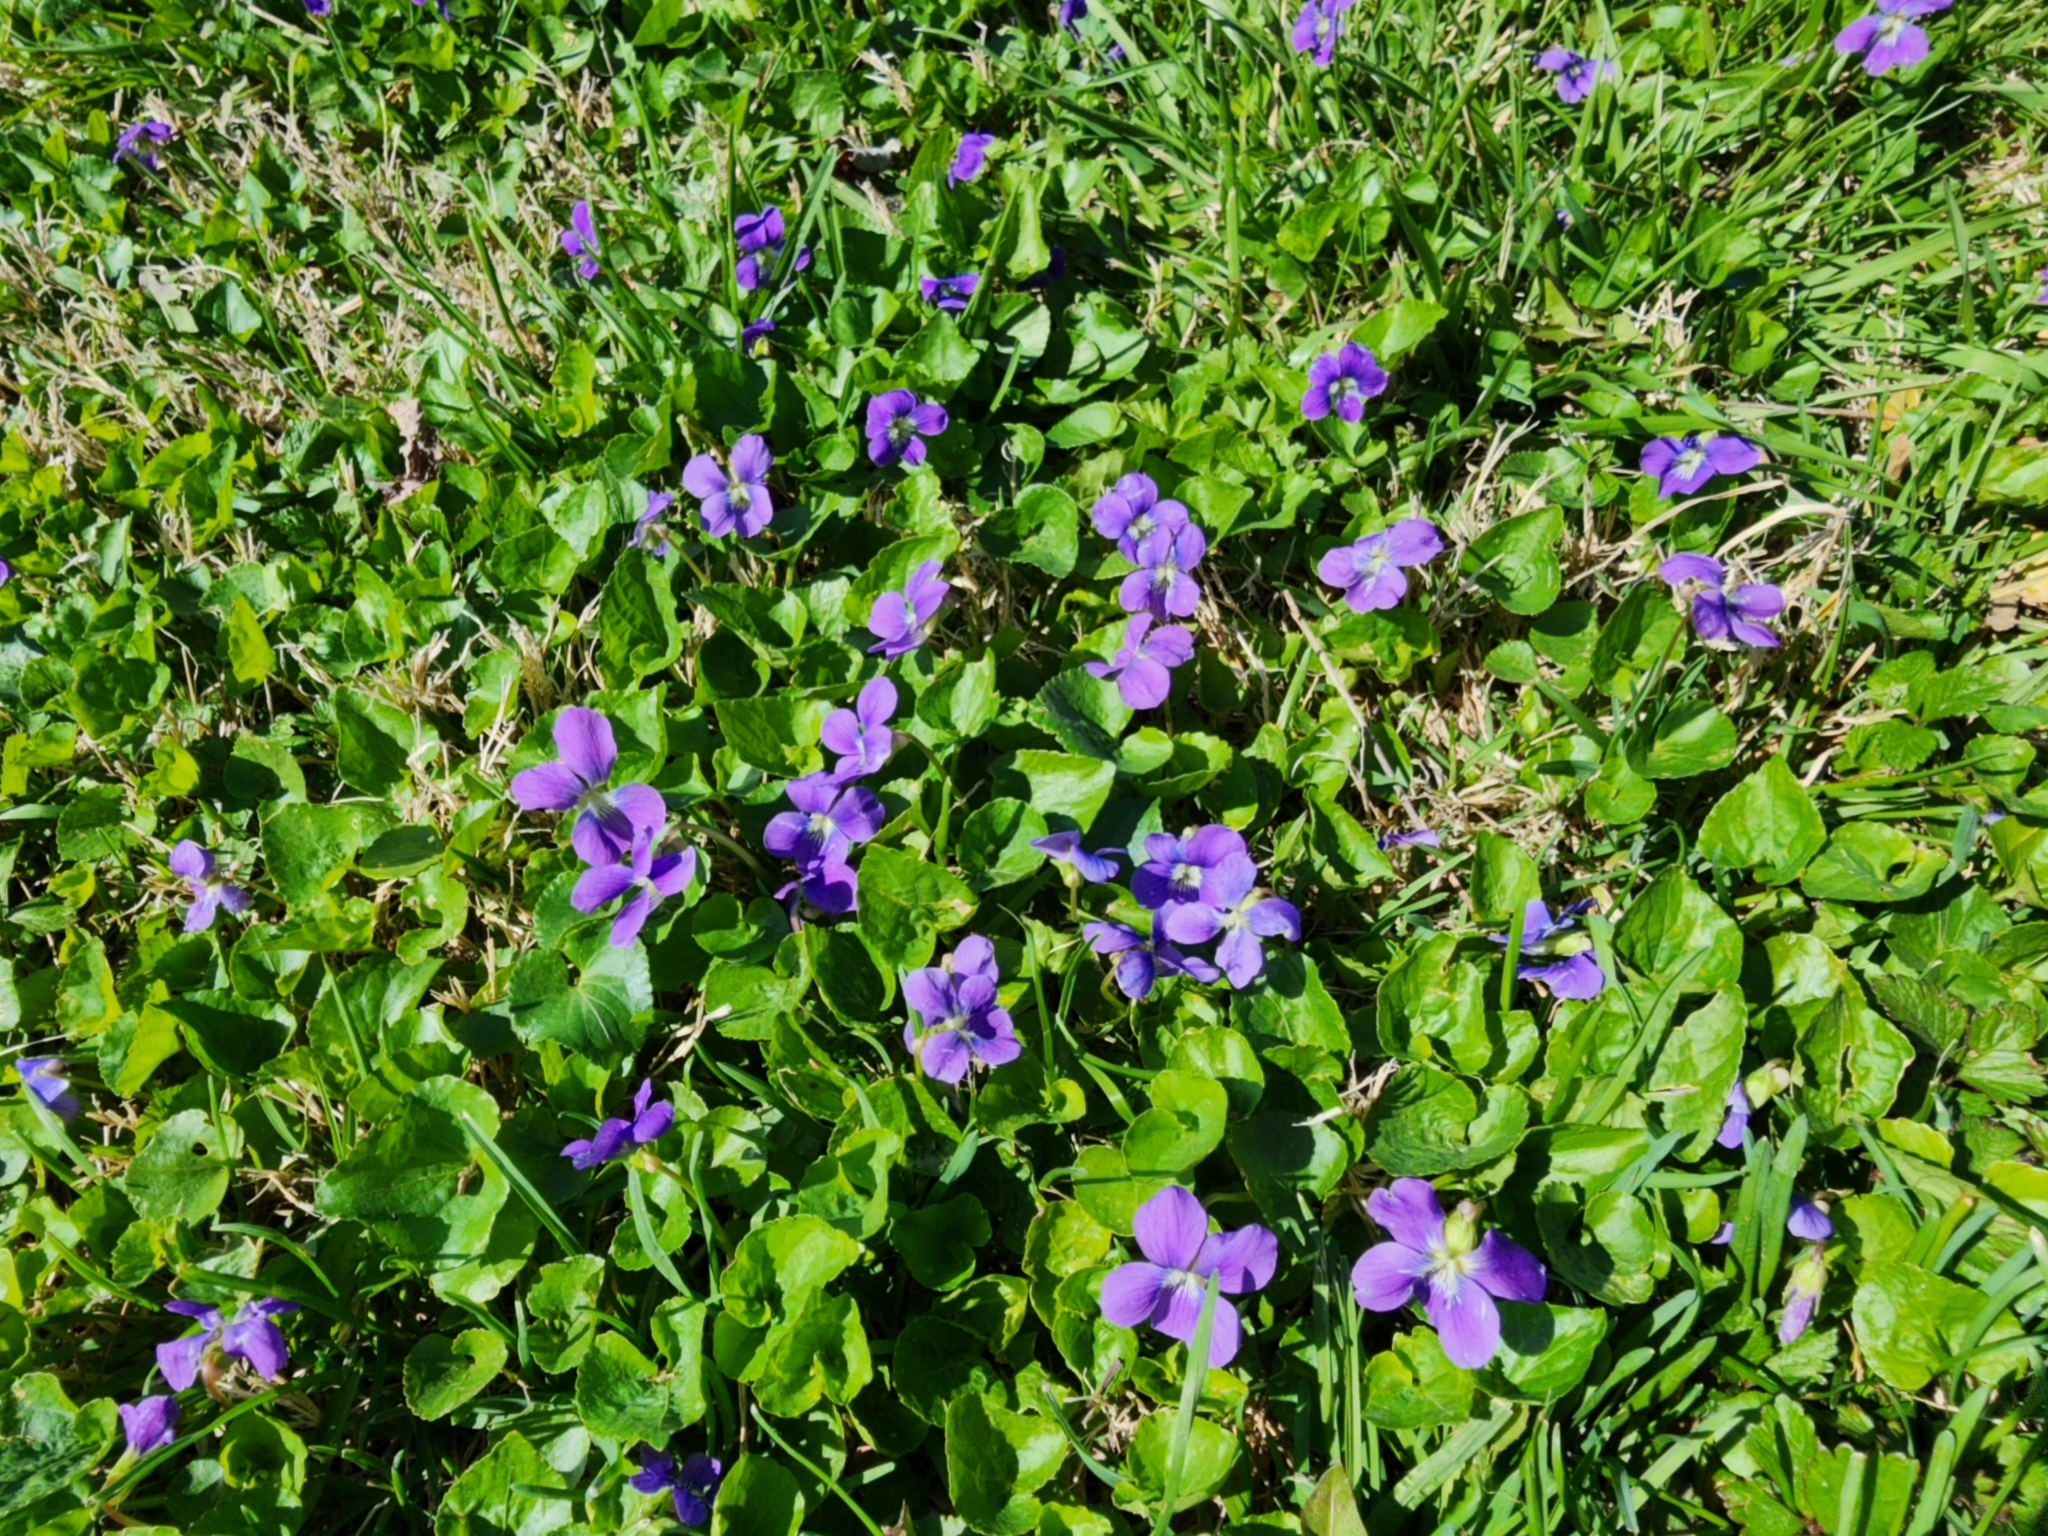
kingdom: Plantae
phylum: Tracheophyta
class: Magnoliopsida
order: Malpighiales
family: Violaceae
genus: Viola
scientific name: Viola sororia
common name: Dooryard violet
